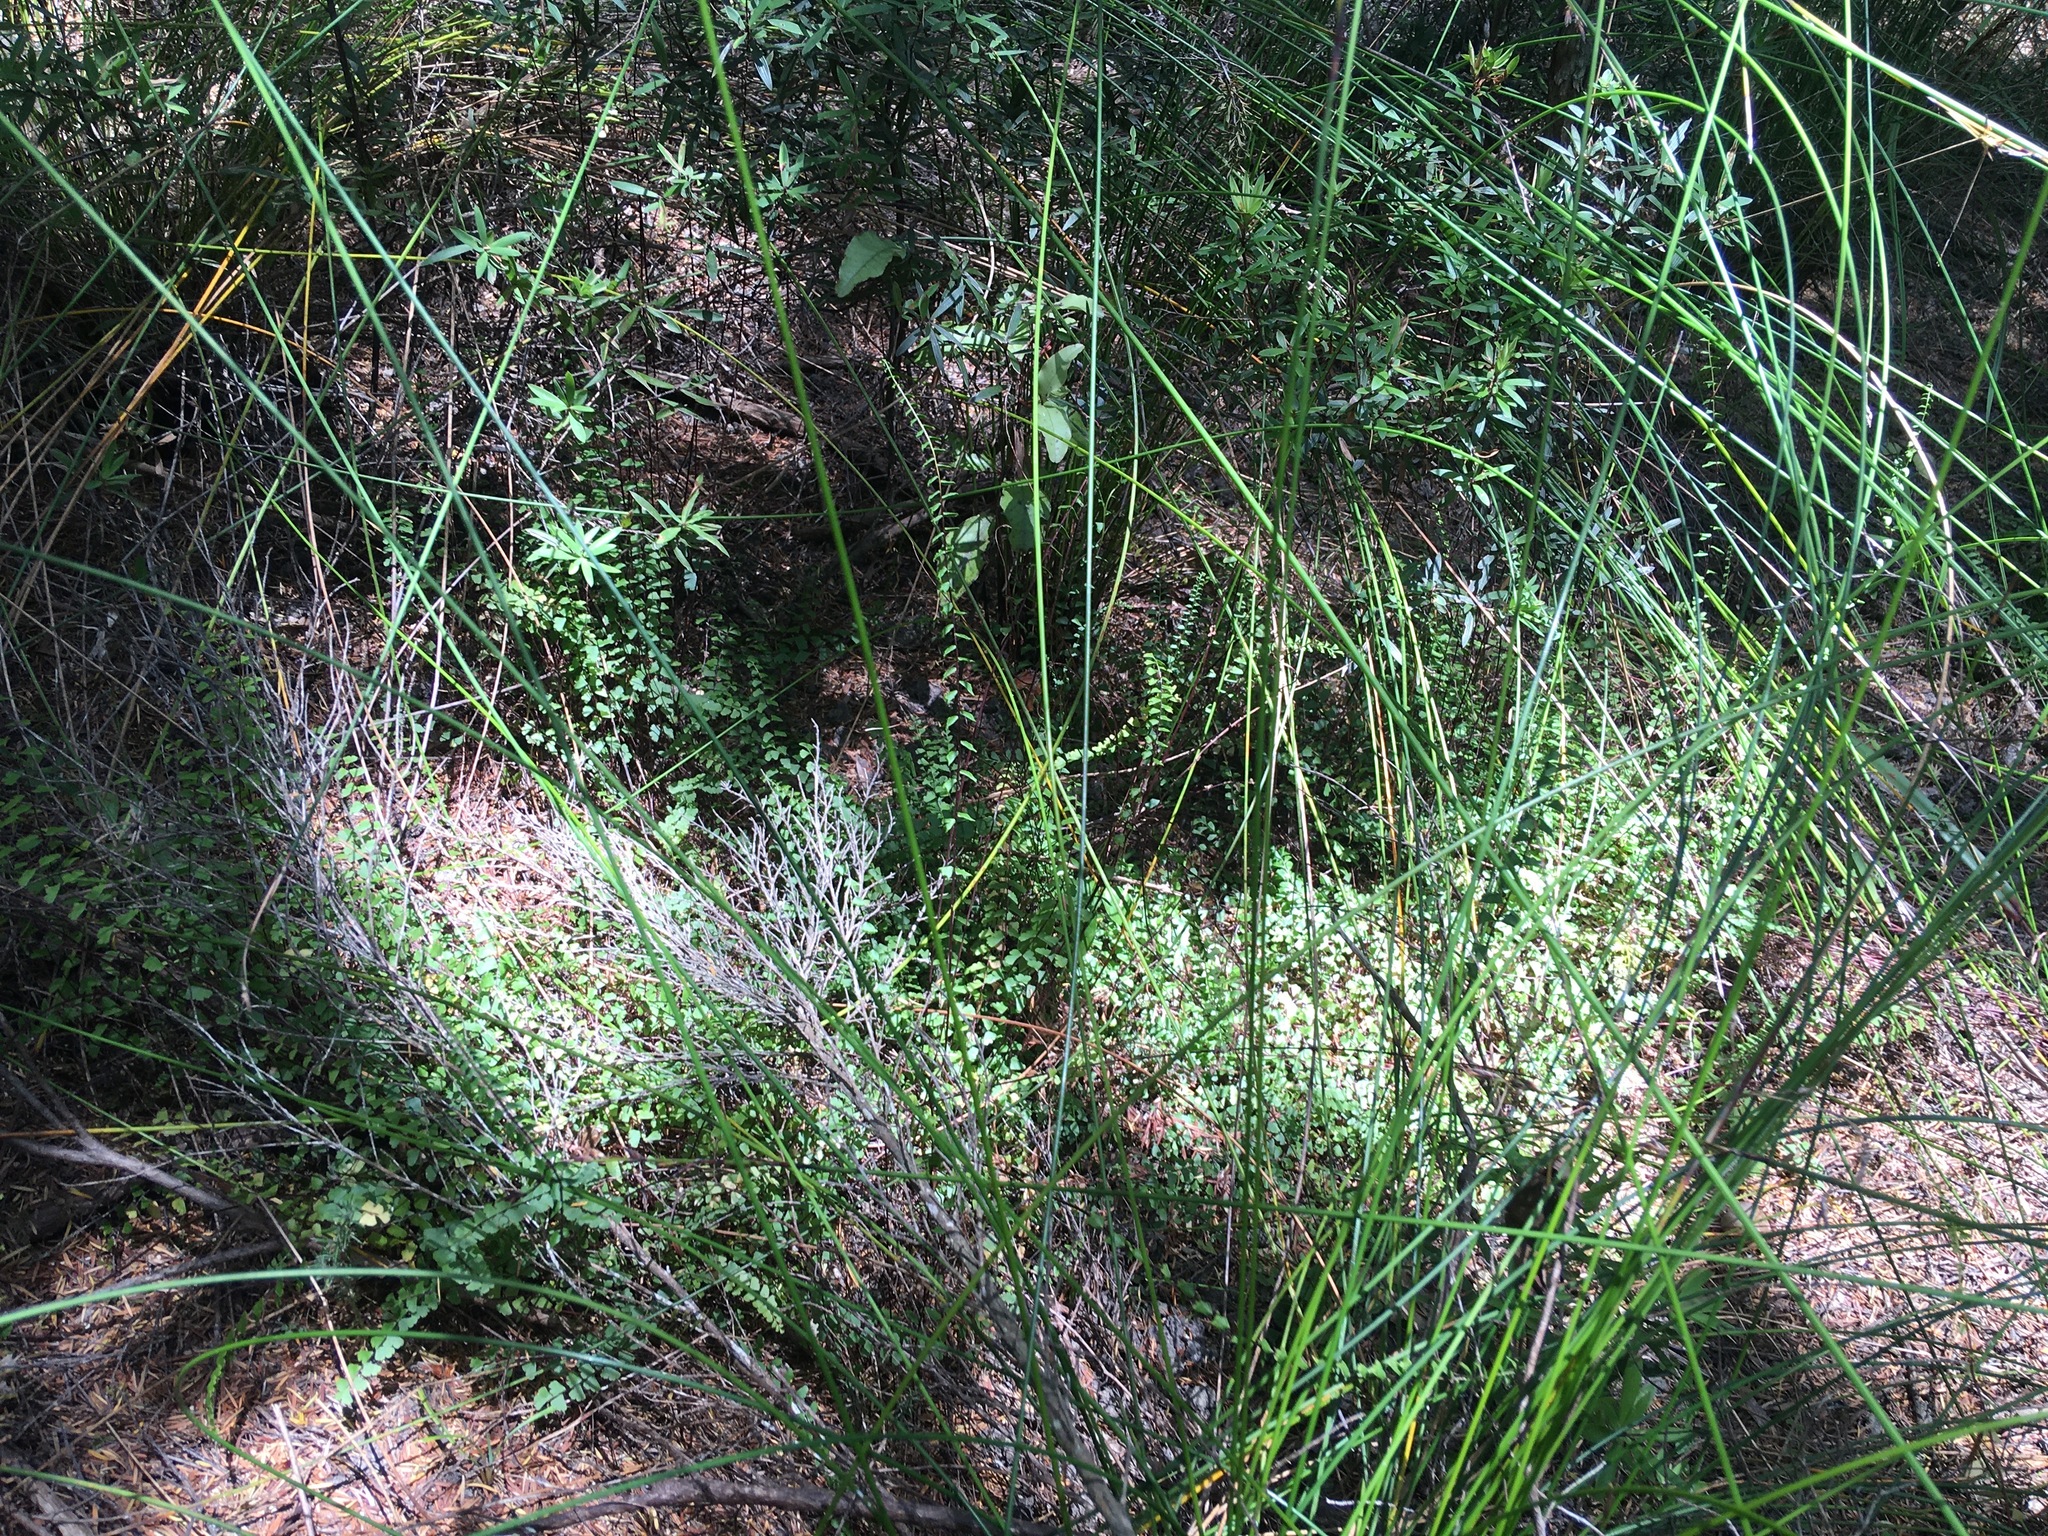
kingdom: Plantae
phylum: Tracheophyta
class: Polypodiopsida
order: Polypodiales
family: Lindsaeaceae
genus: Lindsaea
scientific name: Lindsaea linearis
